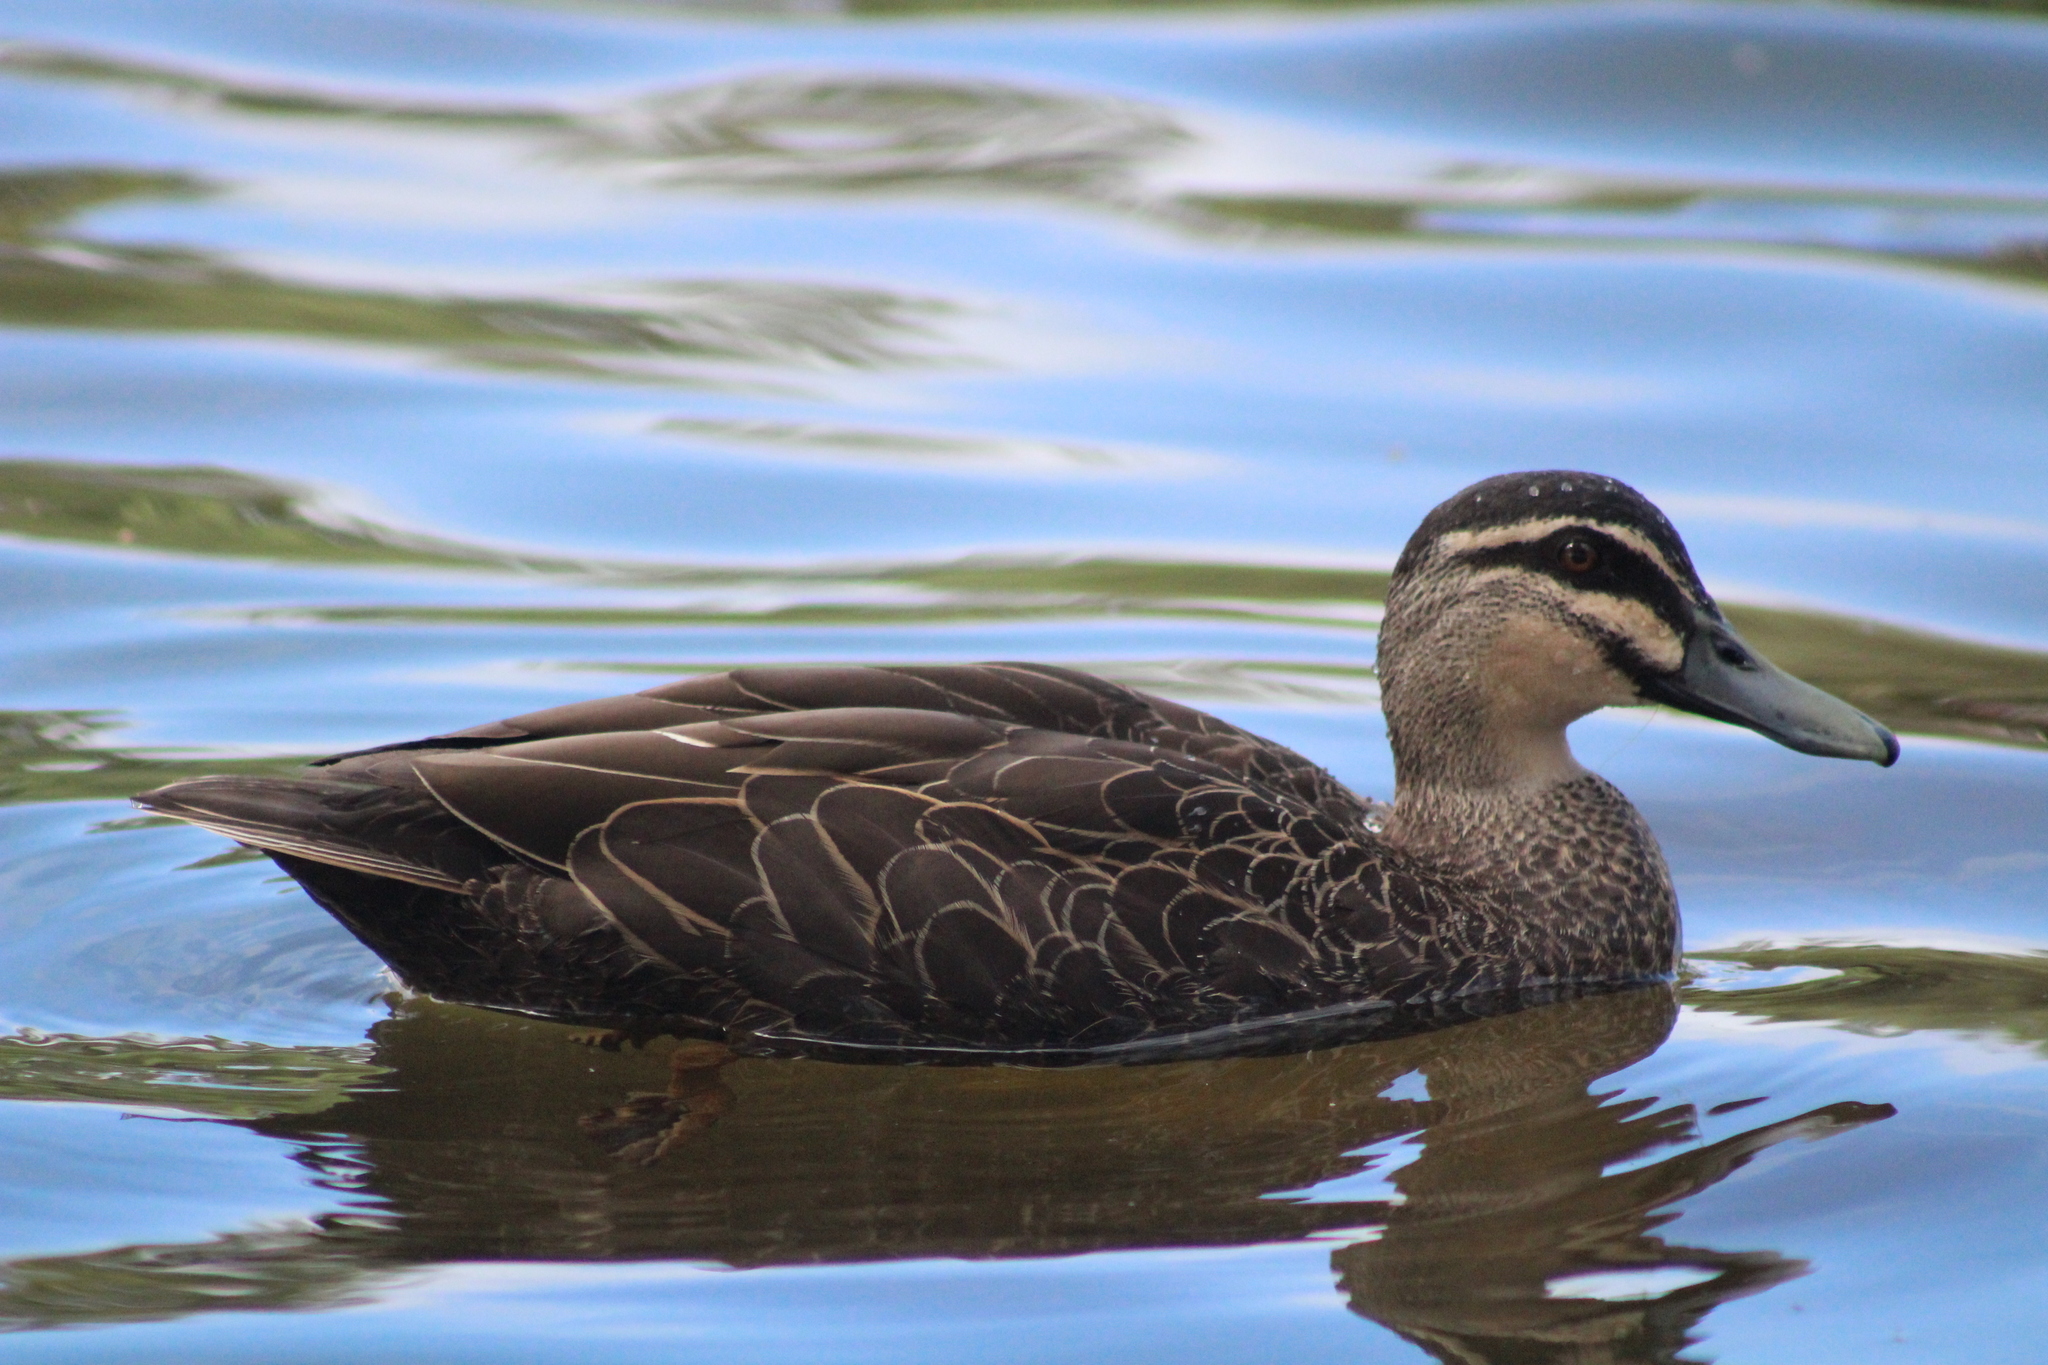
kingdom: Animalia
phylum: Chordata
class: Aves
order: Anseriformes
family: Anatidae
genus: Anas
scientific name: Anas superciliosa
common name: Pacific black duck
